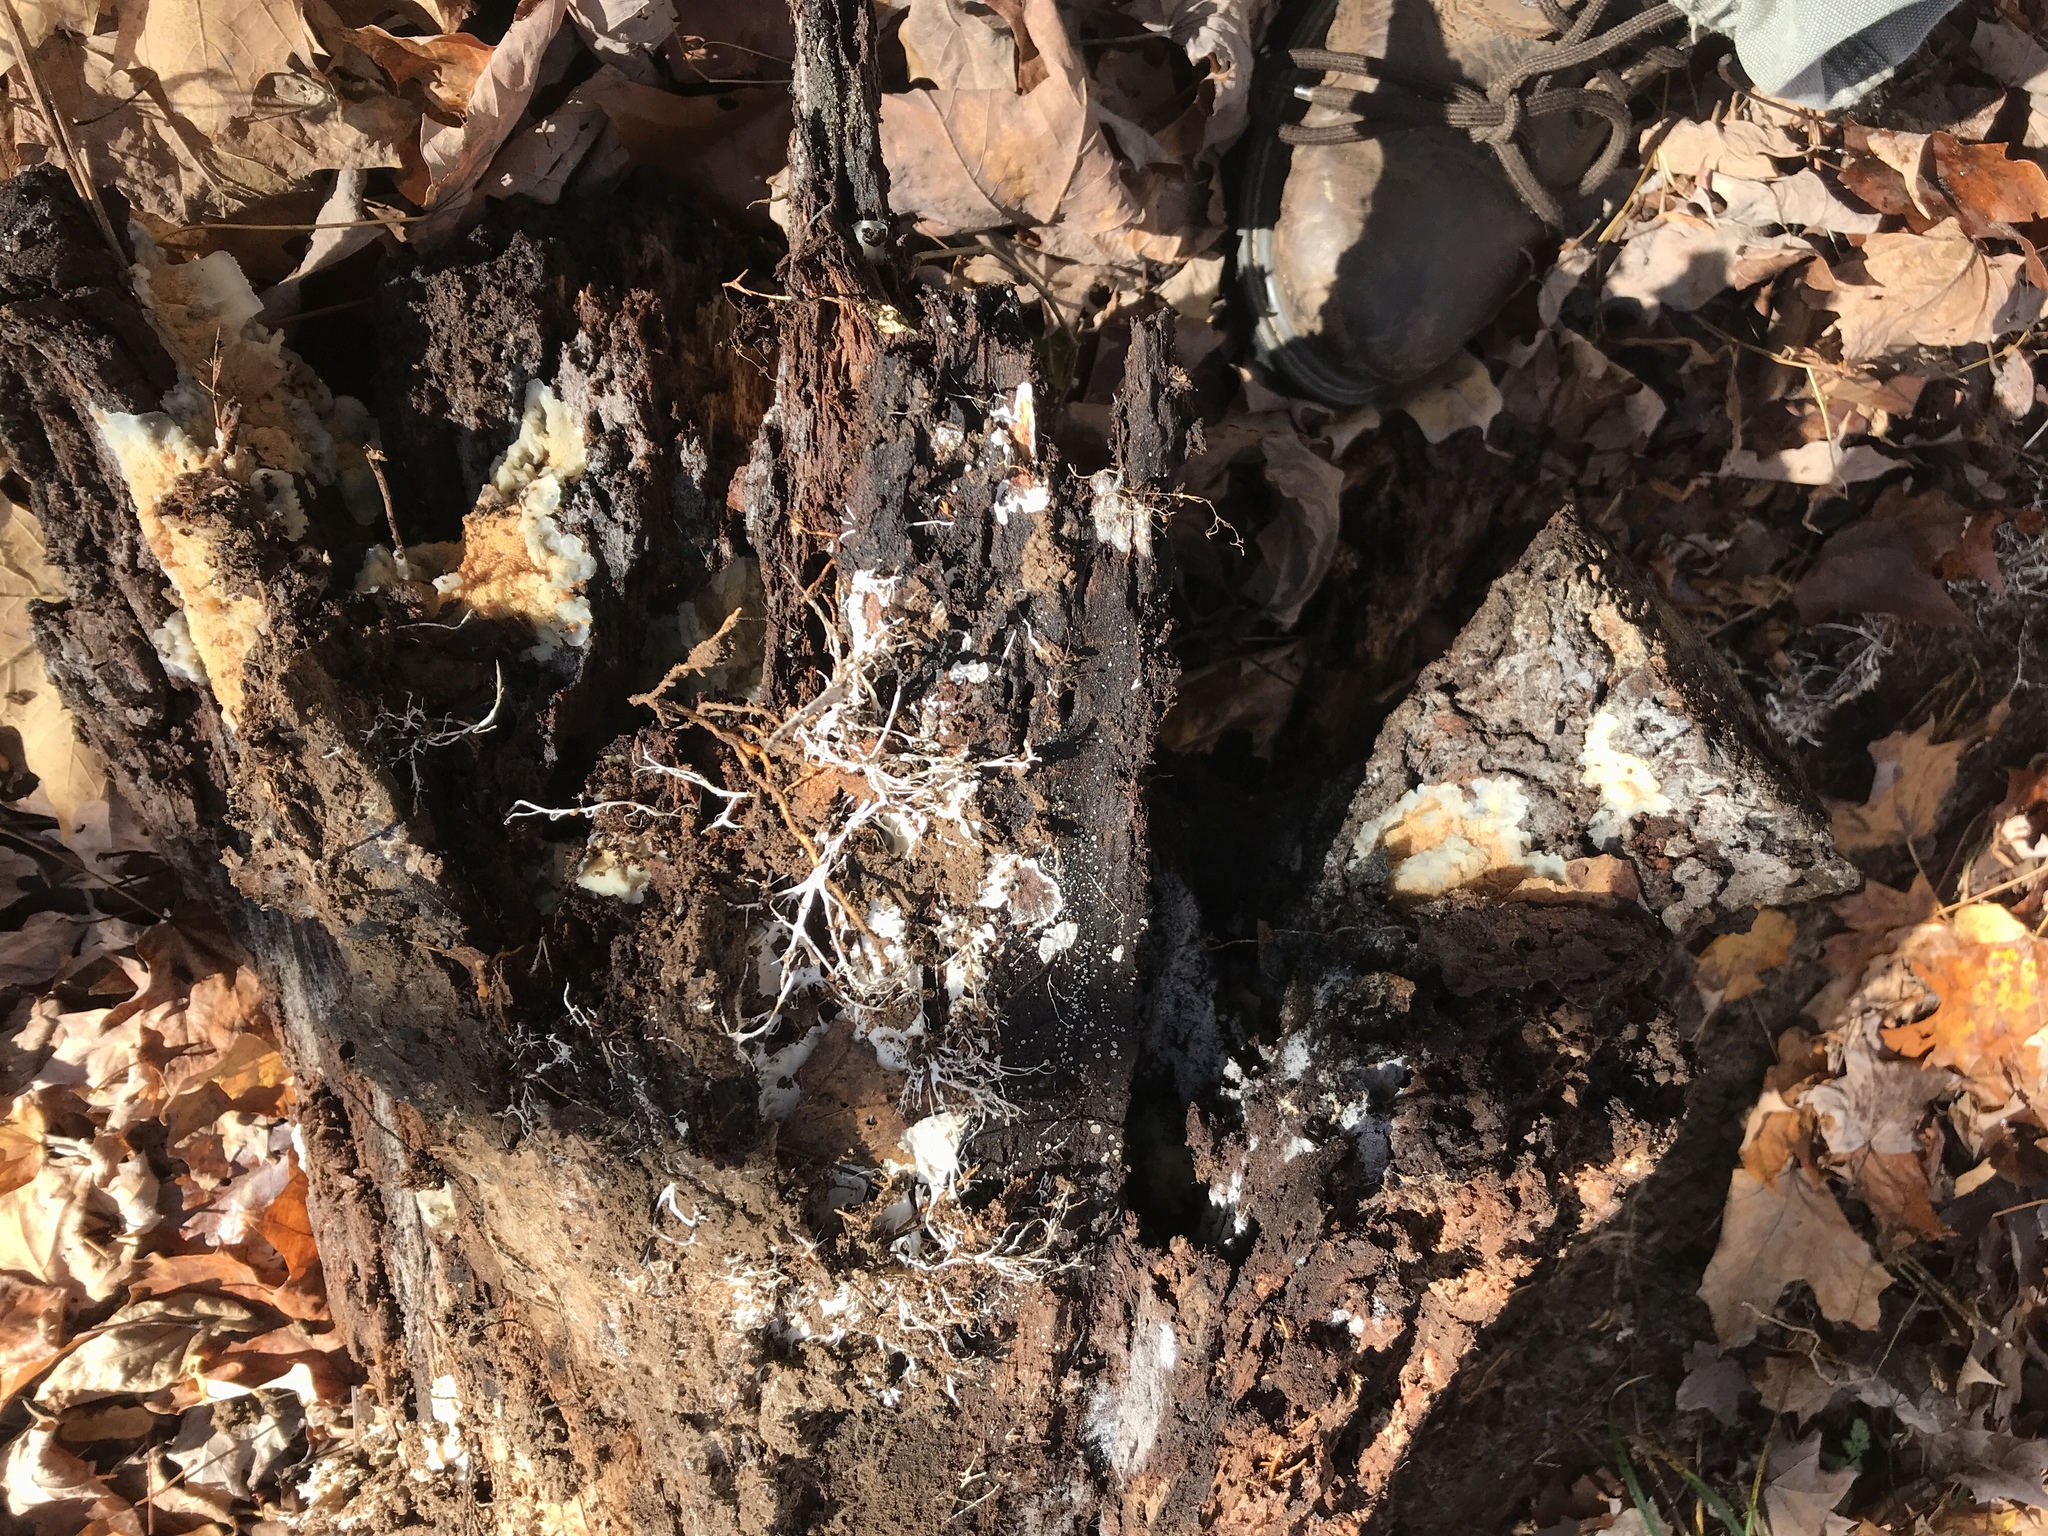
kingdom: Fungi
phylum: Basidiomycota
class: Agaricomycetes
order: Polyporales
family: Meruliaceae
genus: Phlebia
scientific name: Phlebia tremellosa
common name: Jelly rot
